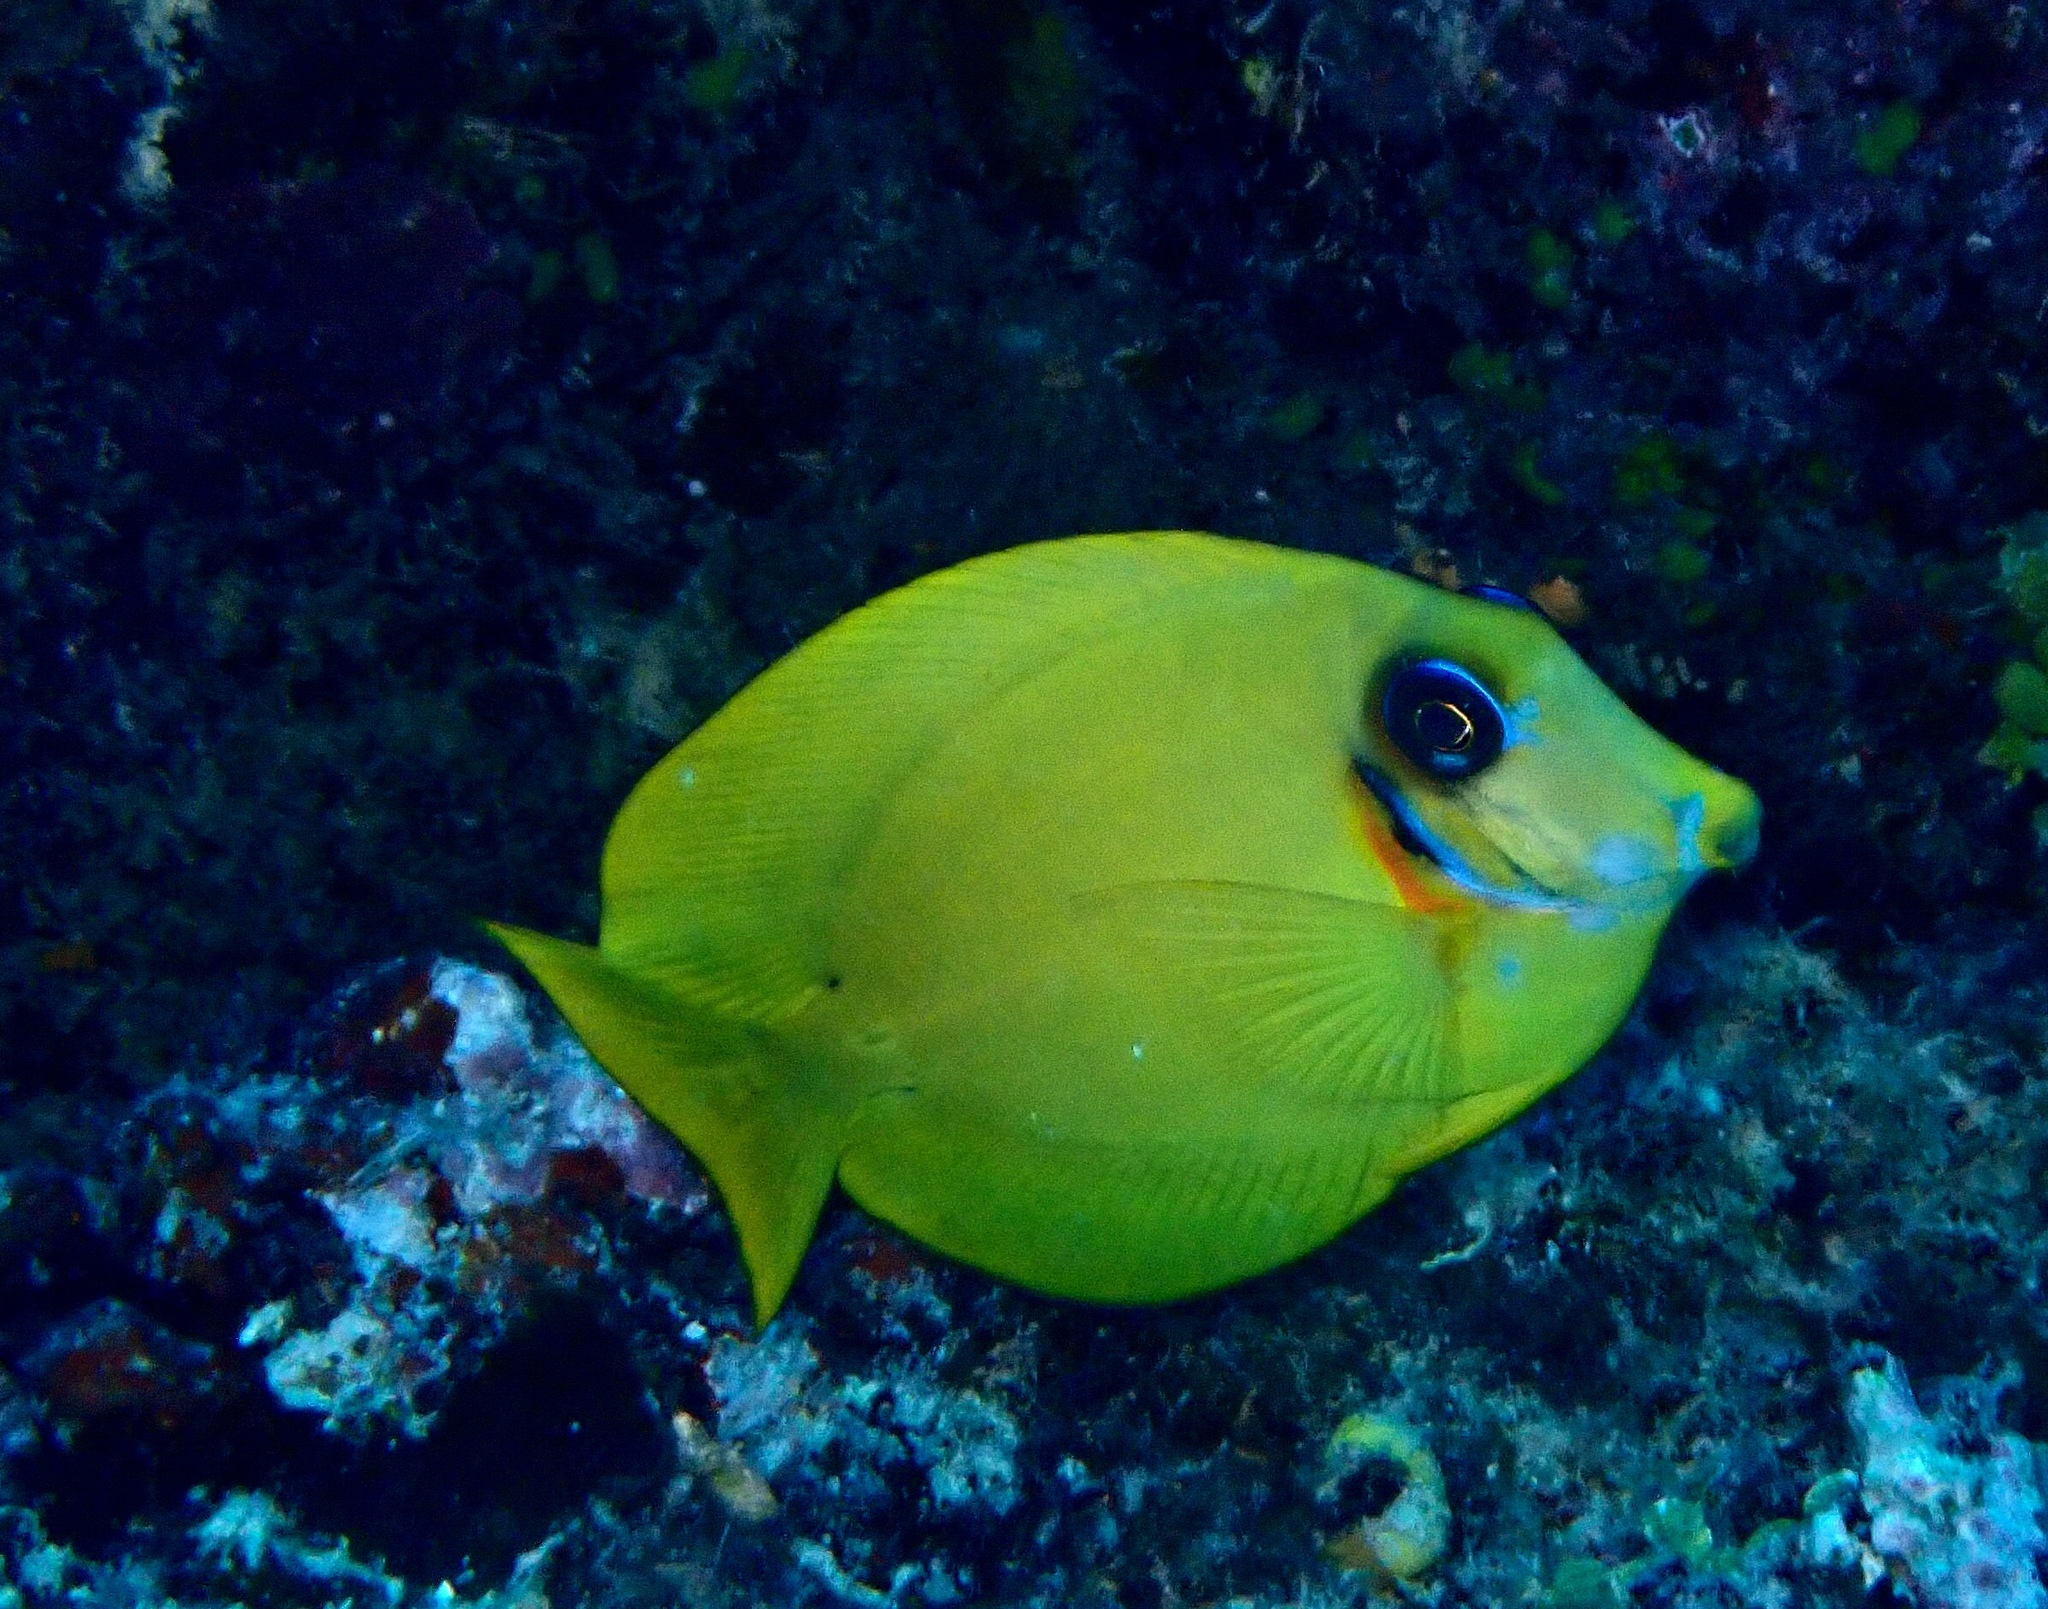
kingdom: Animalia
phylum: Chordata
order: Perciformes
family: Acanthuridae
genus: Acanthurus
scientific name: Acanthurus pyroferus
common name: Chocolate surgeonfish
